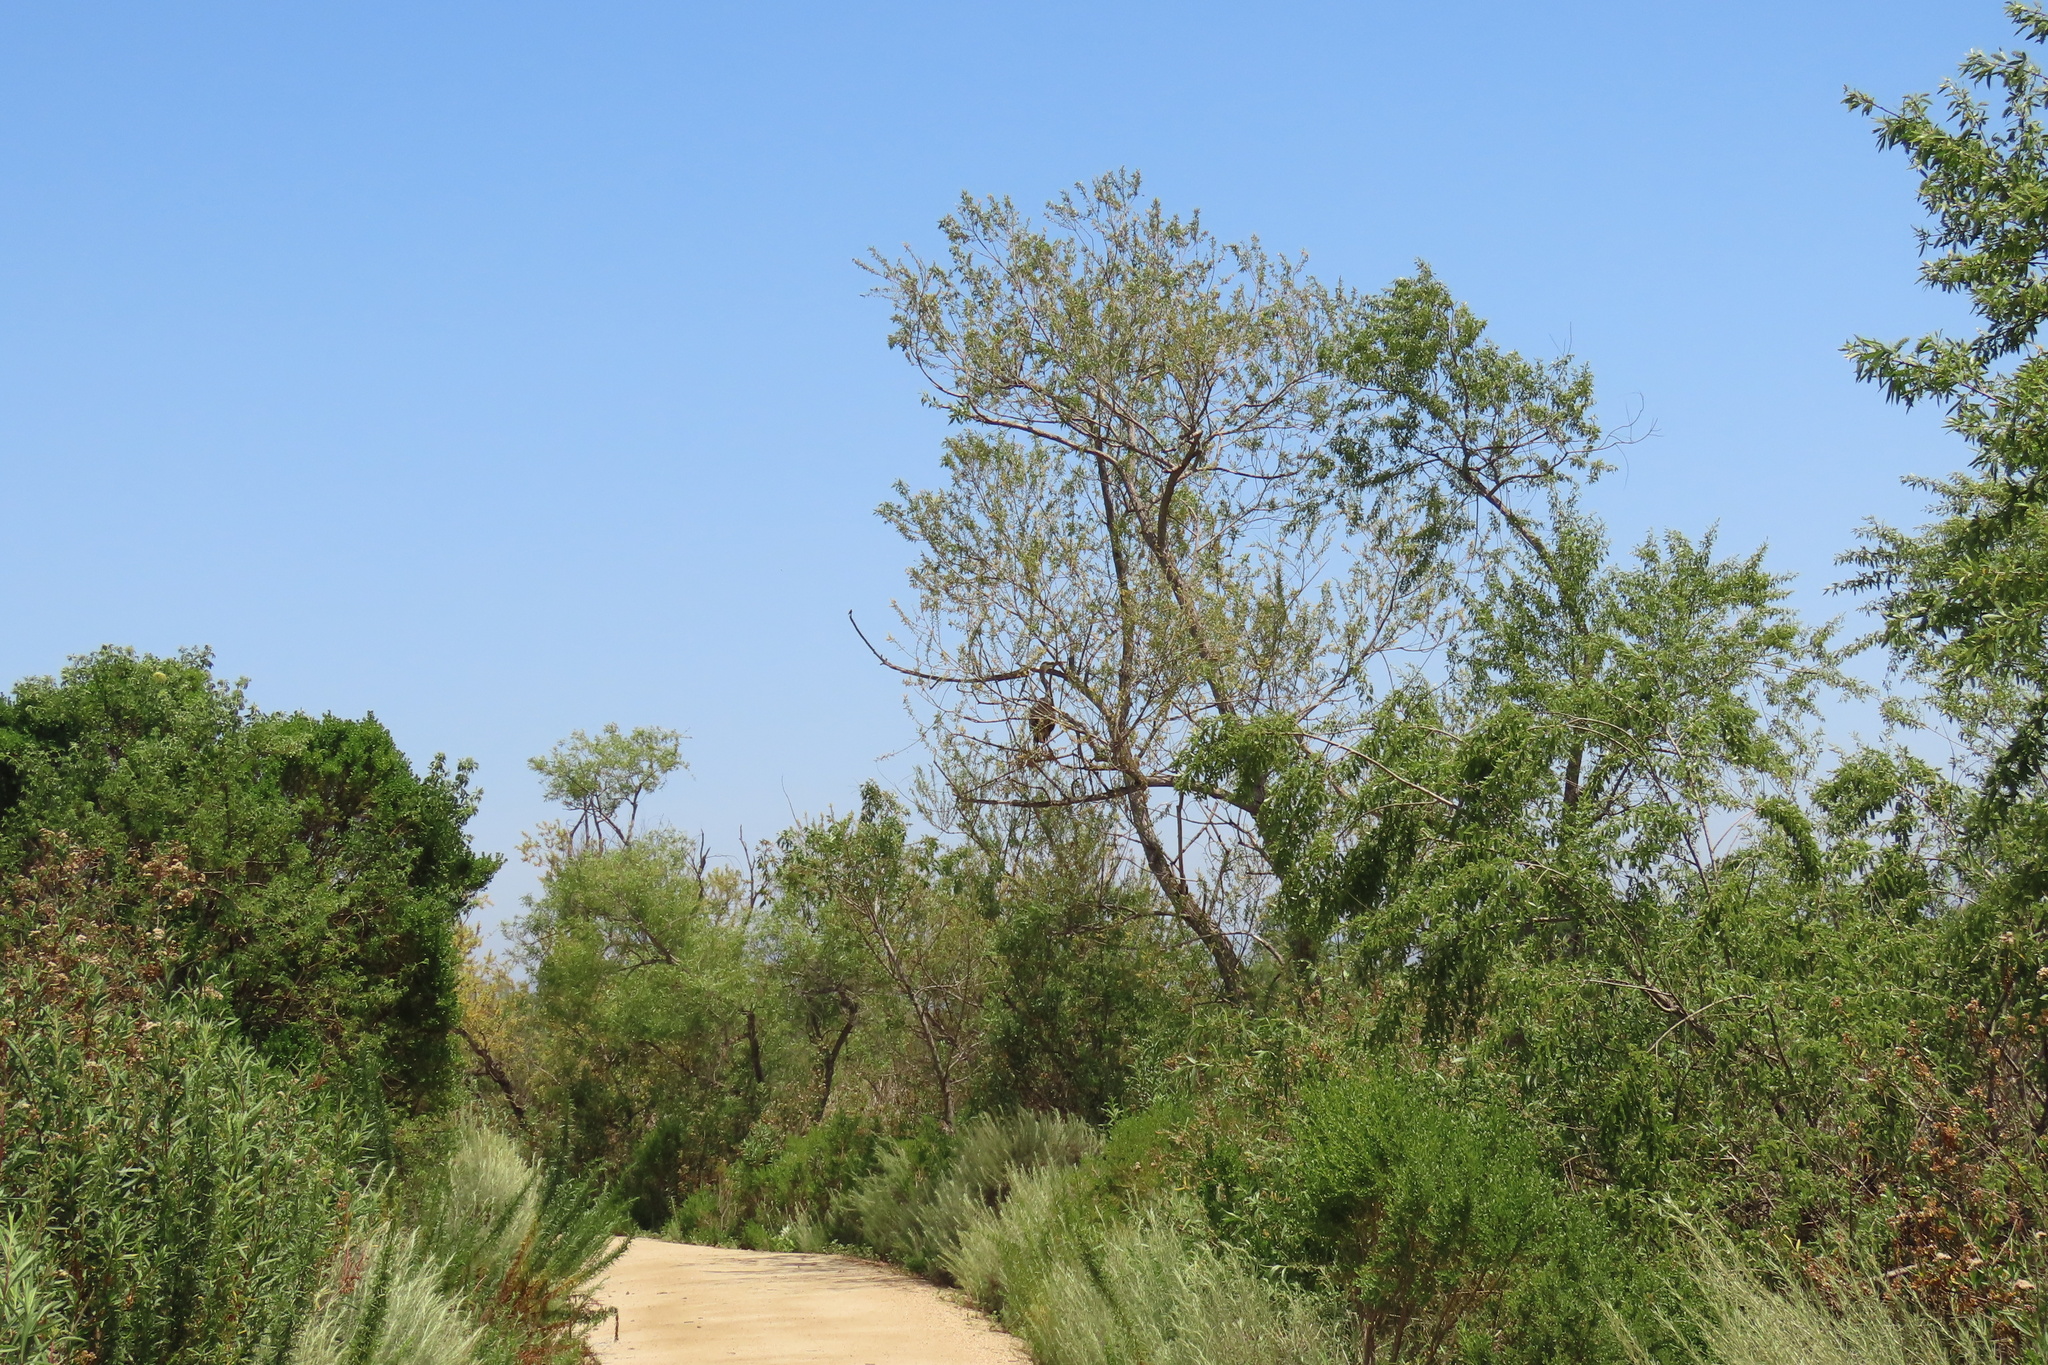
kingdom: Animalia
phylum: Chordata
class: Aves
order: Pelecaniformes
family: Ardeidae
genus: Ardea
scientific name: Ardea herodias
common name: Great blue heron
